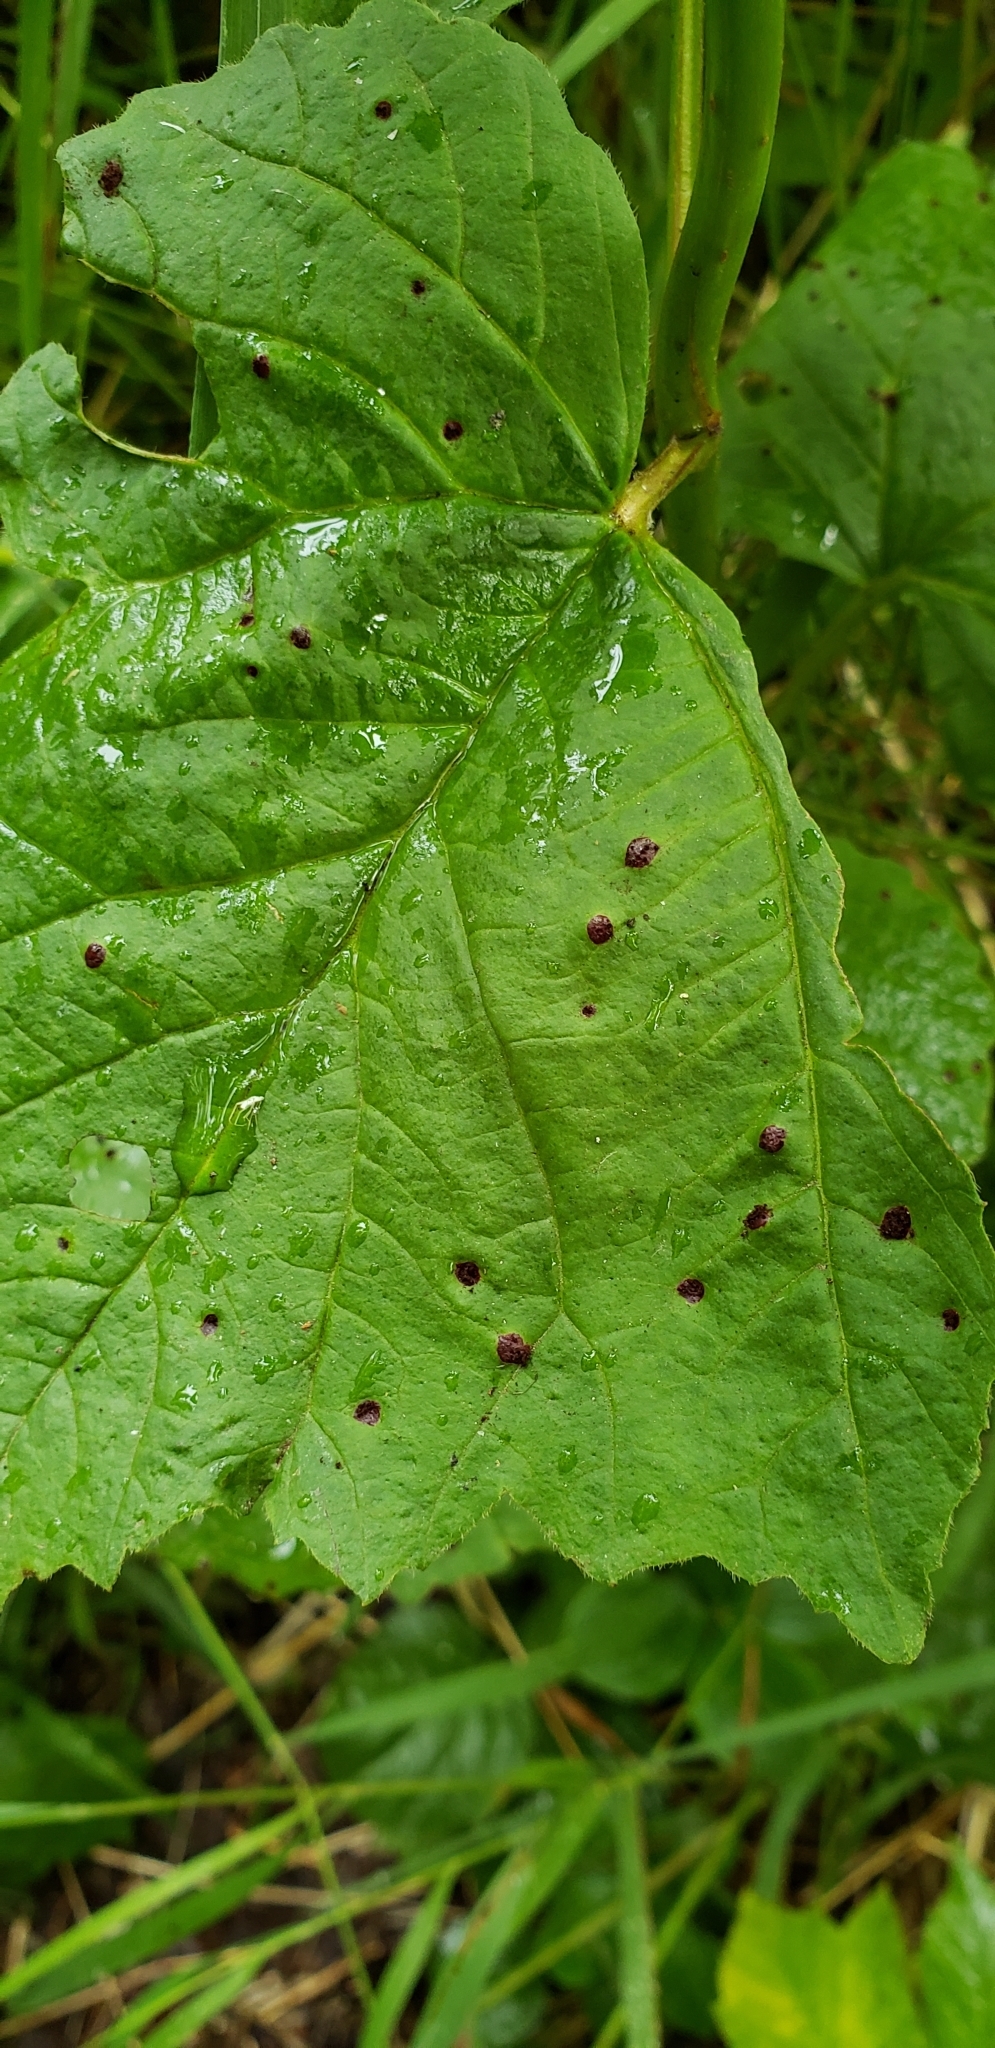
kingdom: Fungi
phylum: Basidiomycota
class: Pucciniomycetes
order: Pucciniales
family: Pucciniaceae
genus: Puccinia
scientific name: Puccinia linkii
